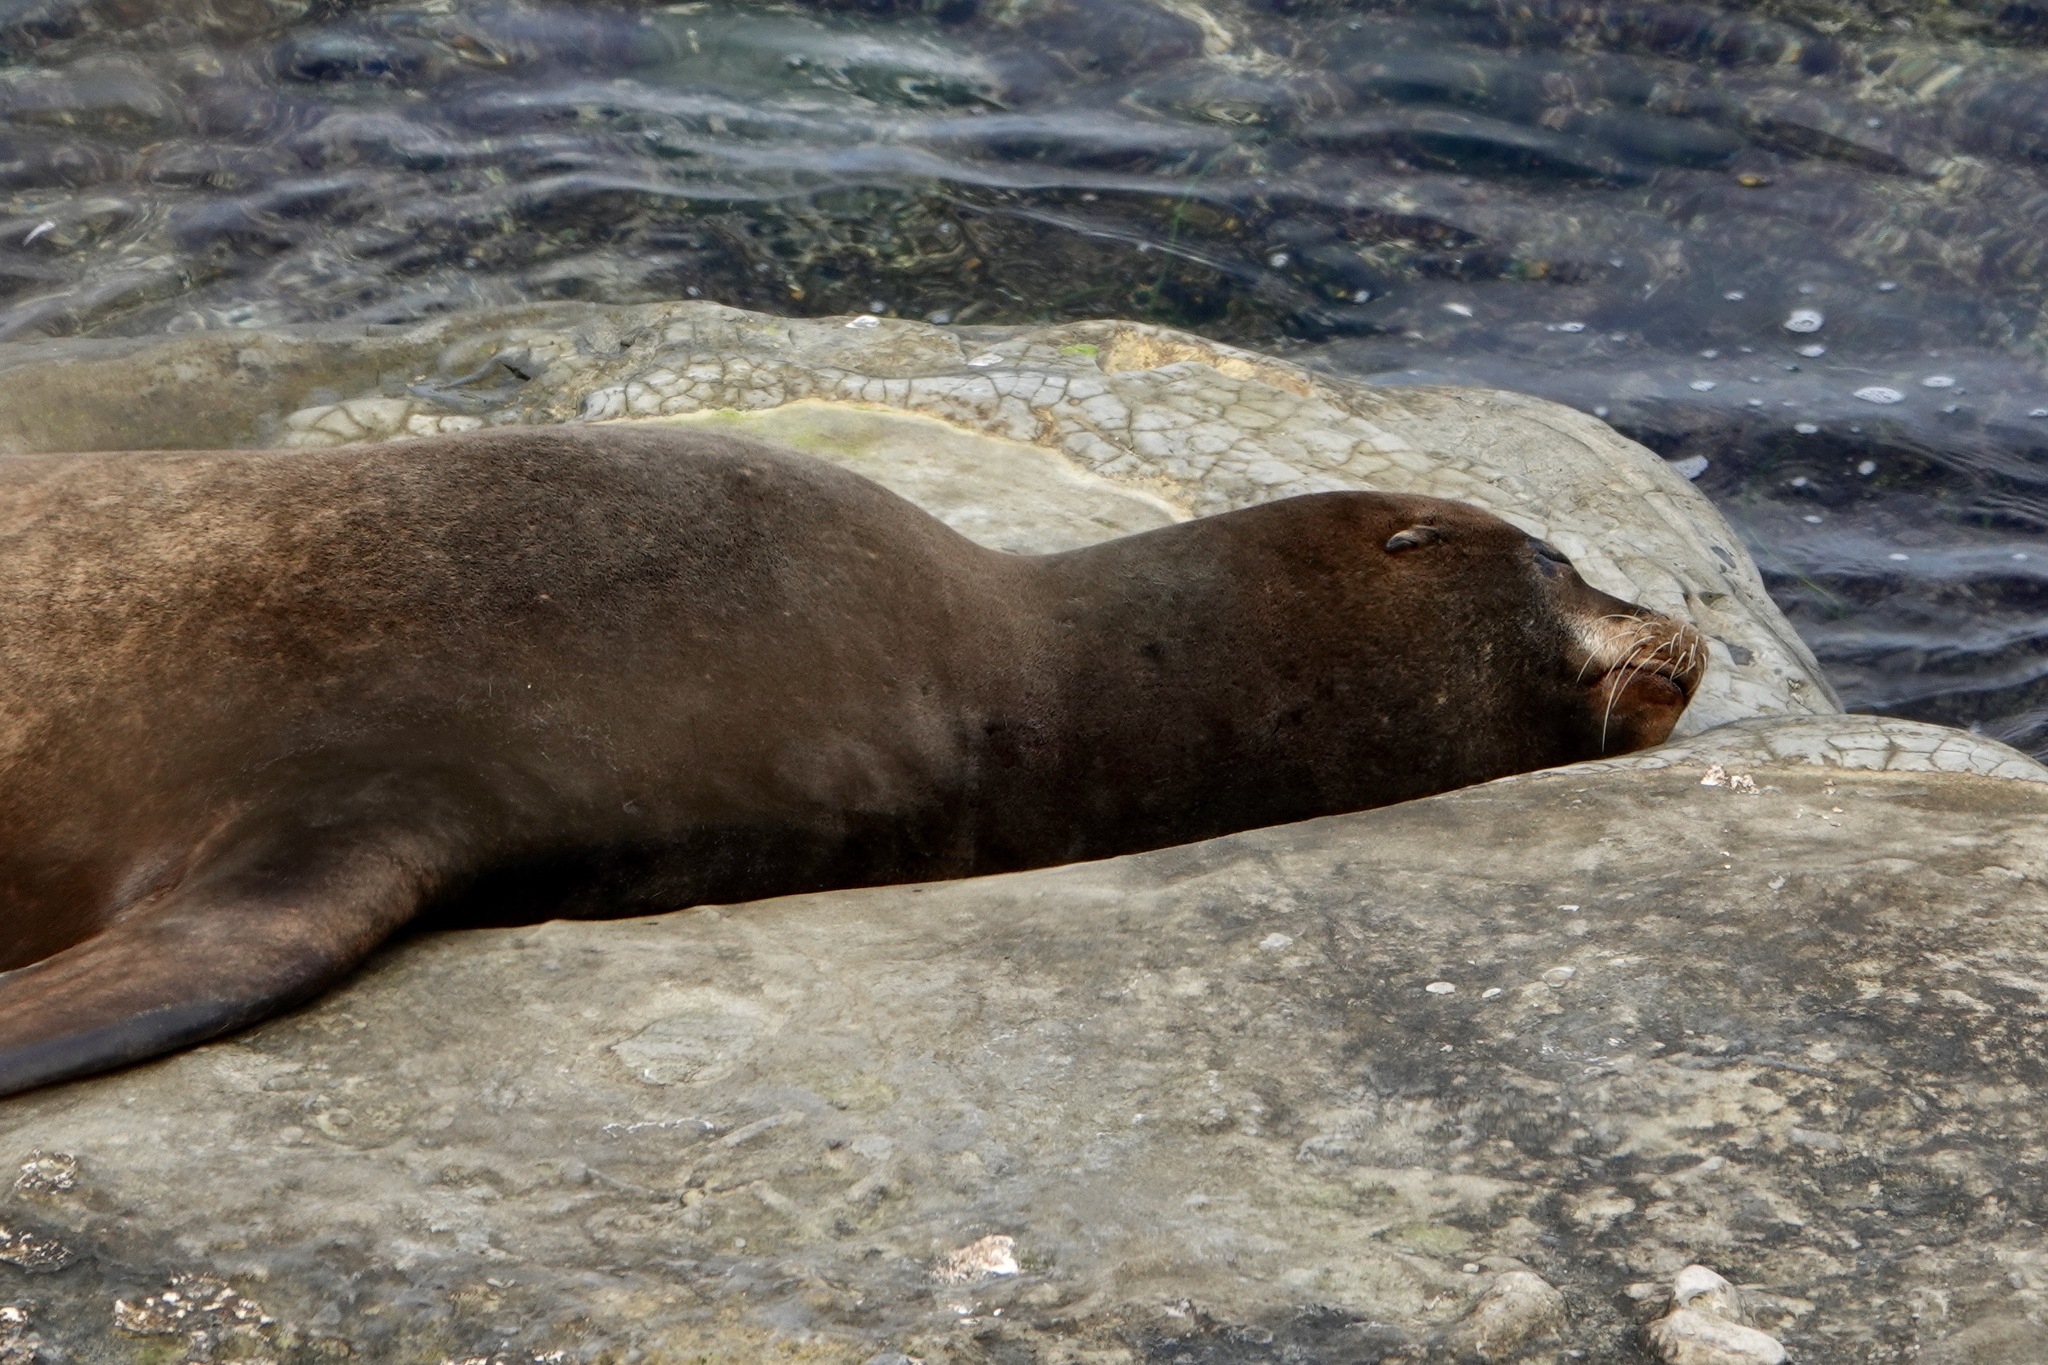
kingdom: Animalia
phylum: Chordata
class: Mammalia
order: Carnivora
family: Otariidae
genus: Zalophus
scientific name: Zalophus californianus
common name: California sea lion
